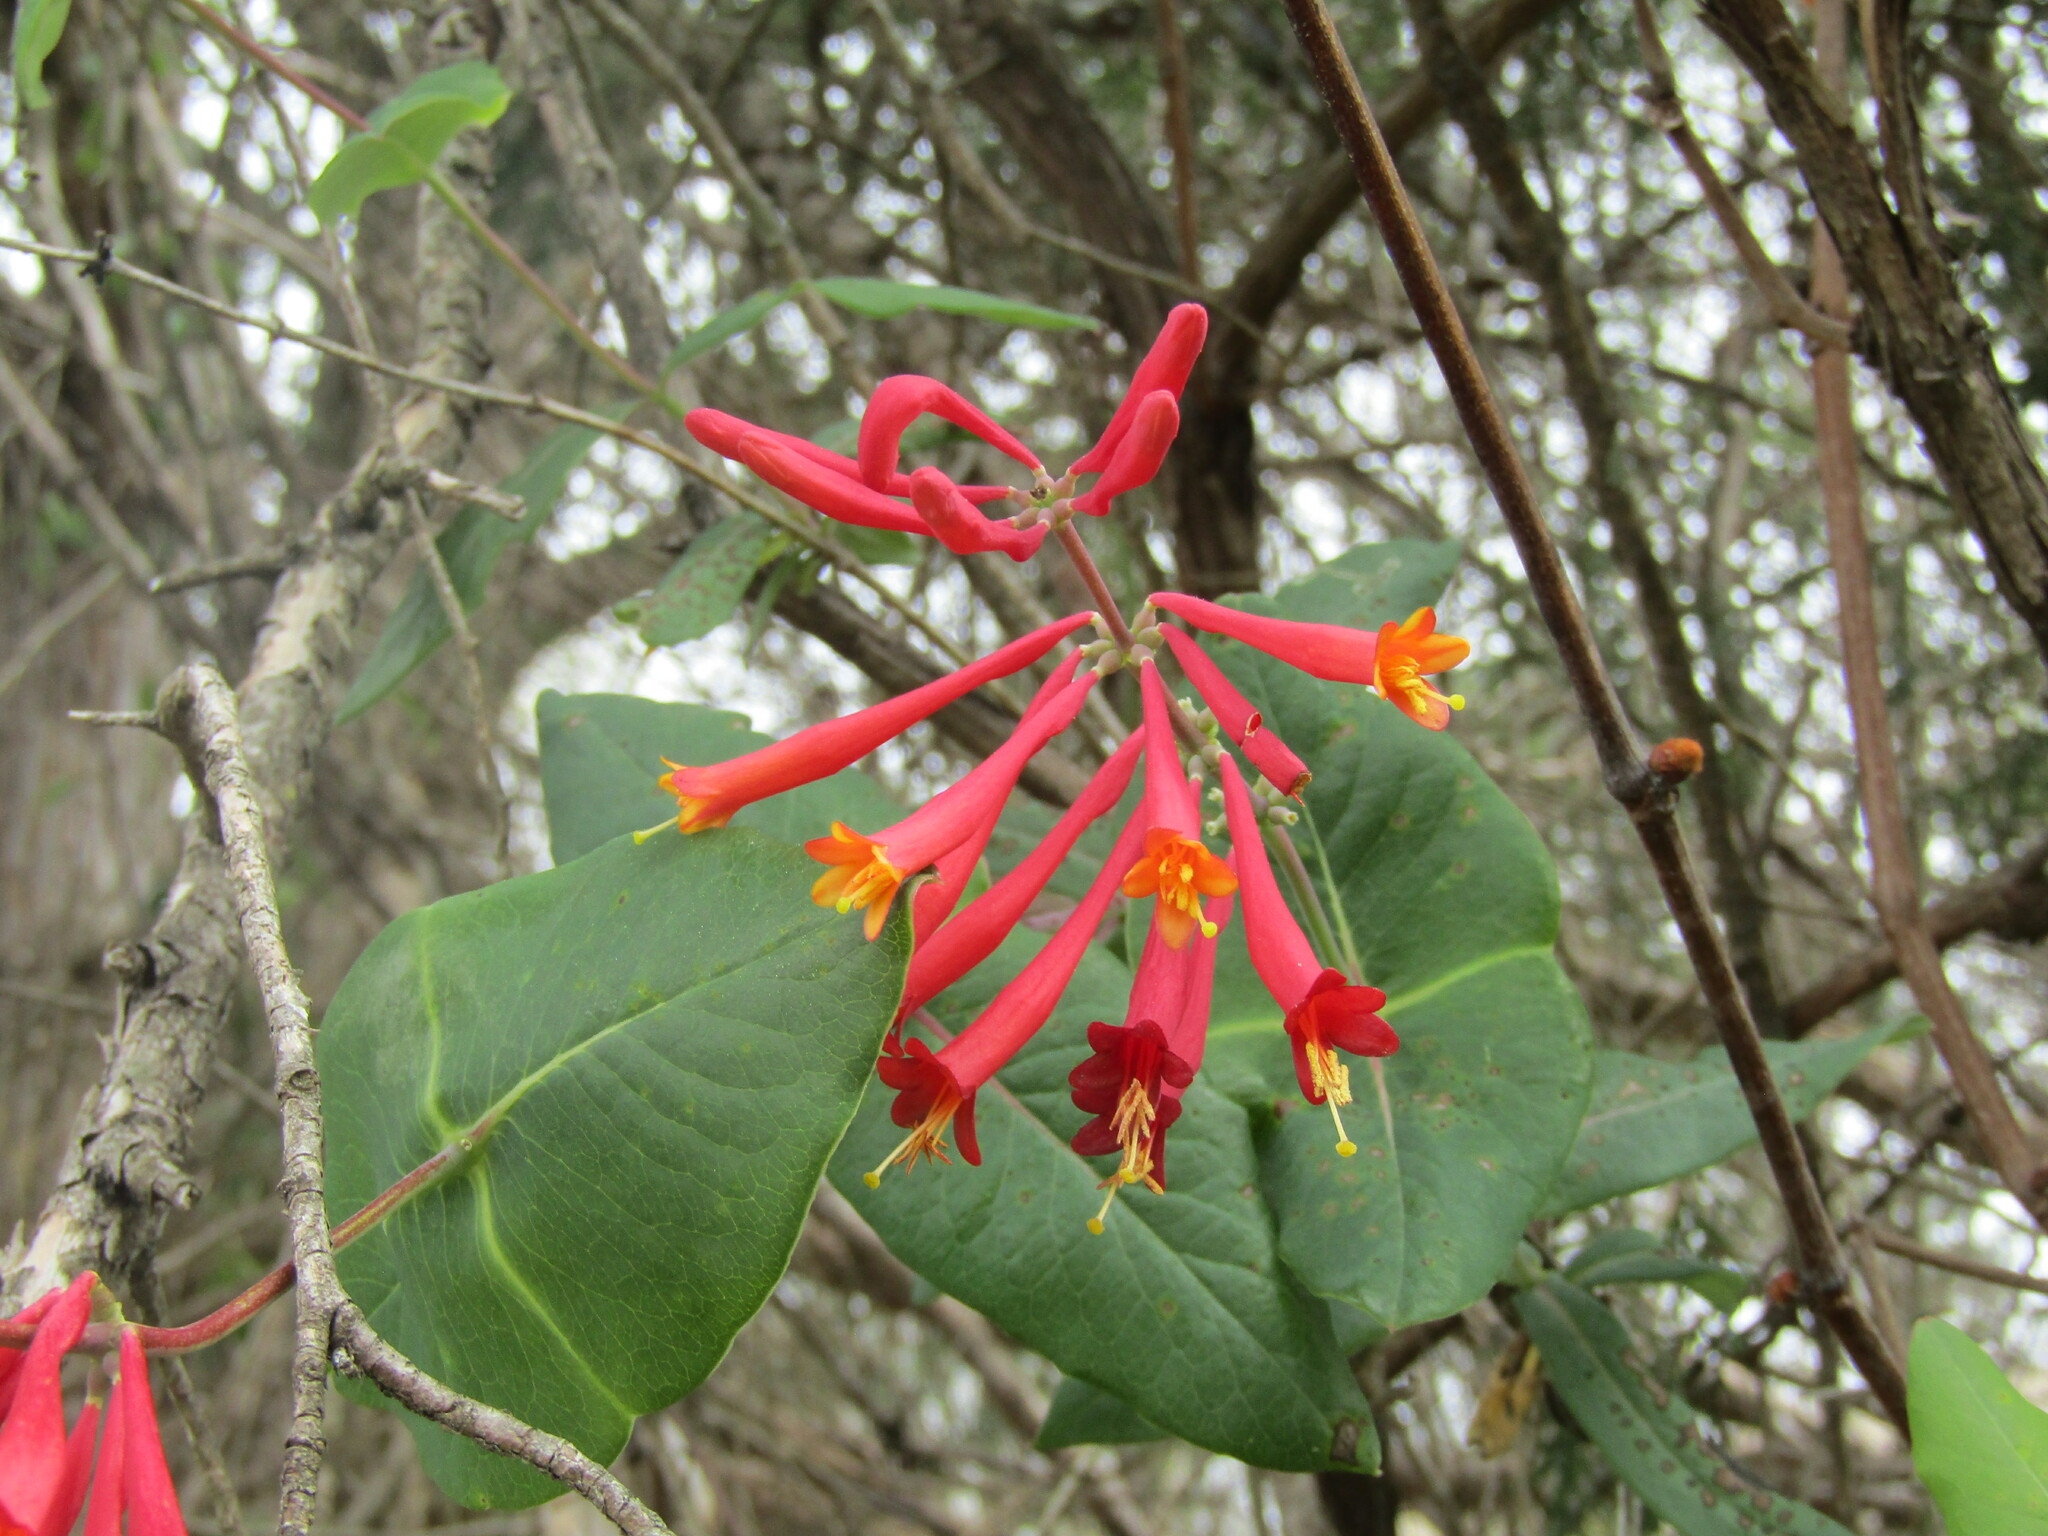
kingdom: Plantae
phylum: Tracheophyta
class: Magnoliopsida
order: Dipsacales
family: Caprifoliaceae
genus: Lonicera
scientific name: Lonicera sempervirens
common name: Coral honeysuckle
